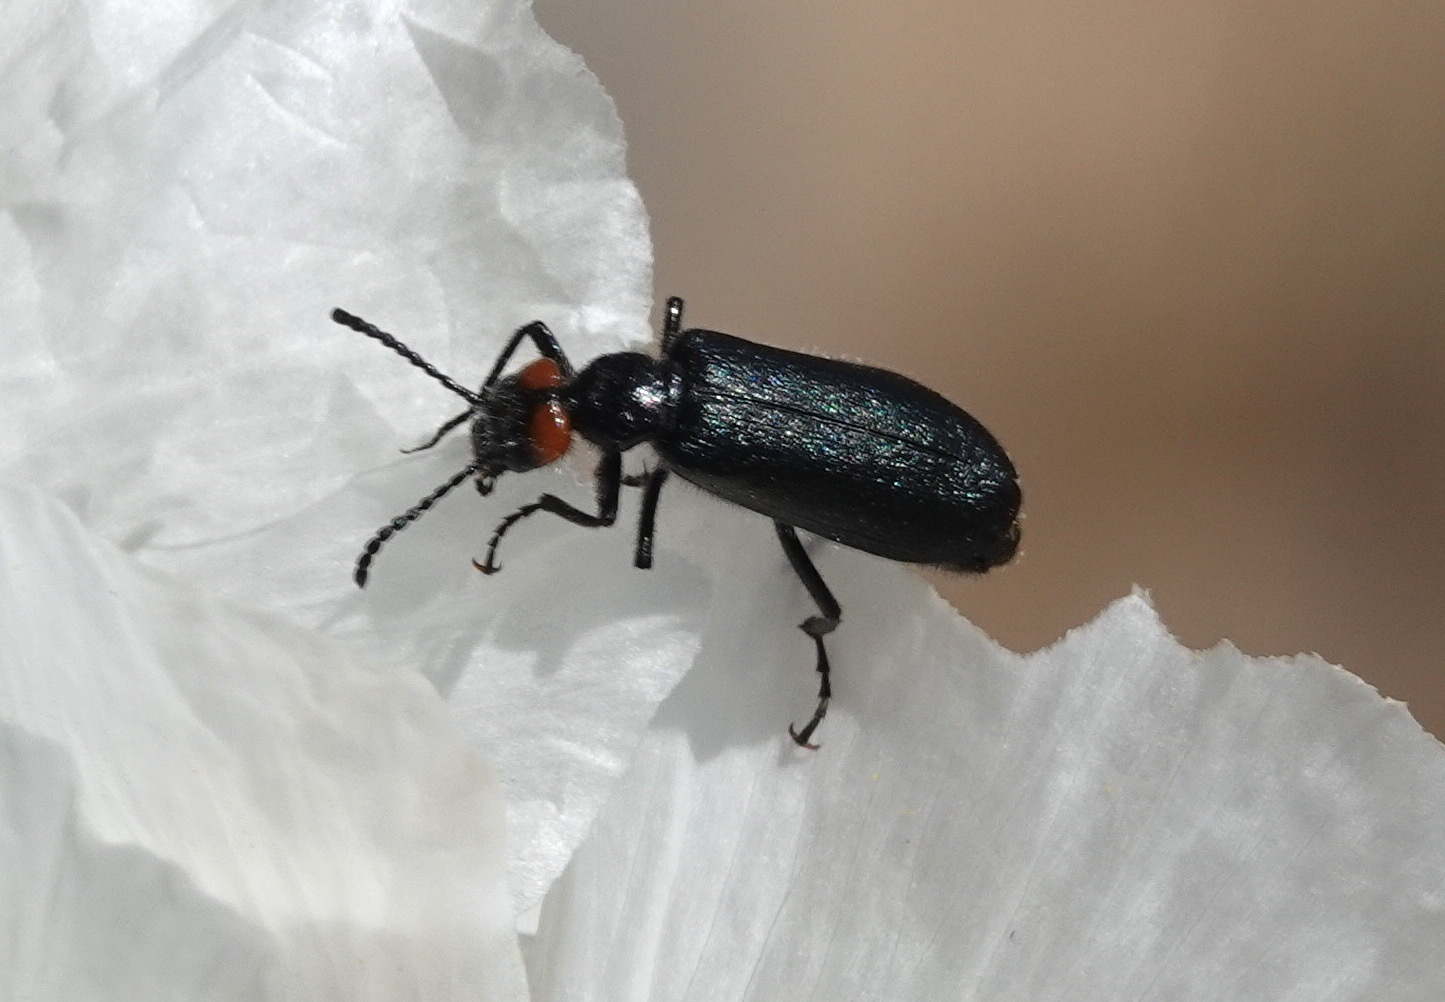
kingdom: Animalia
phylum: Arthropoda
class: Insecta
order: Coleoptera
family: Meloidae
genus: Lytta
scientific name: Lytta auriculata
